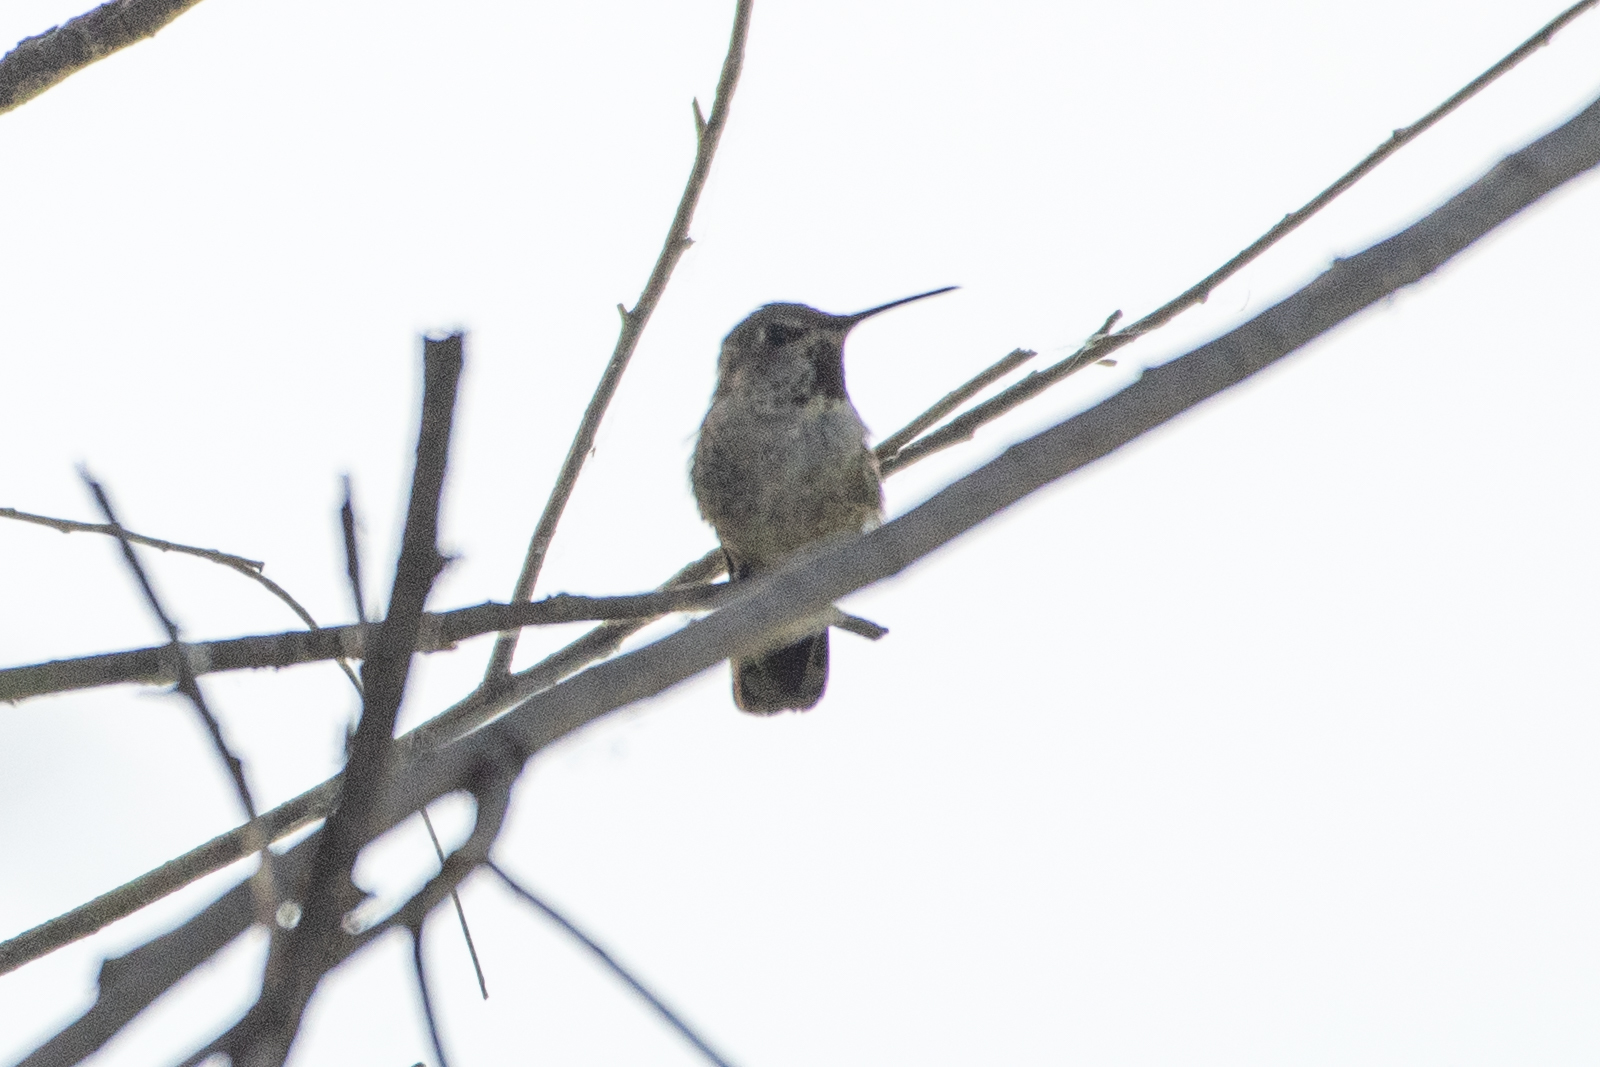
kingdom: Animalia
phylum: Chordata
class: Aves
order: Apodiformes
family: Trochilidae
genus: Calypte
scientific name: Calypte anna
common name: Anna's hummingbird
